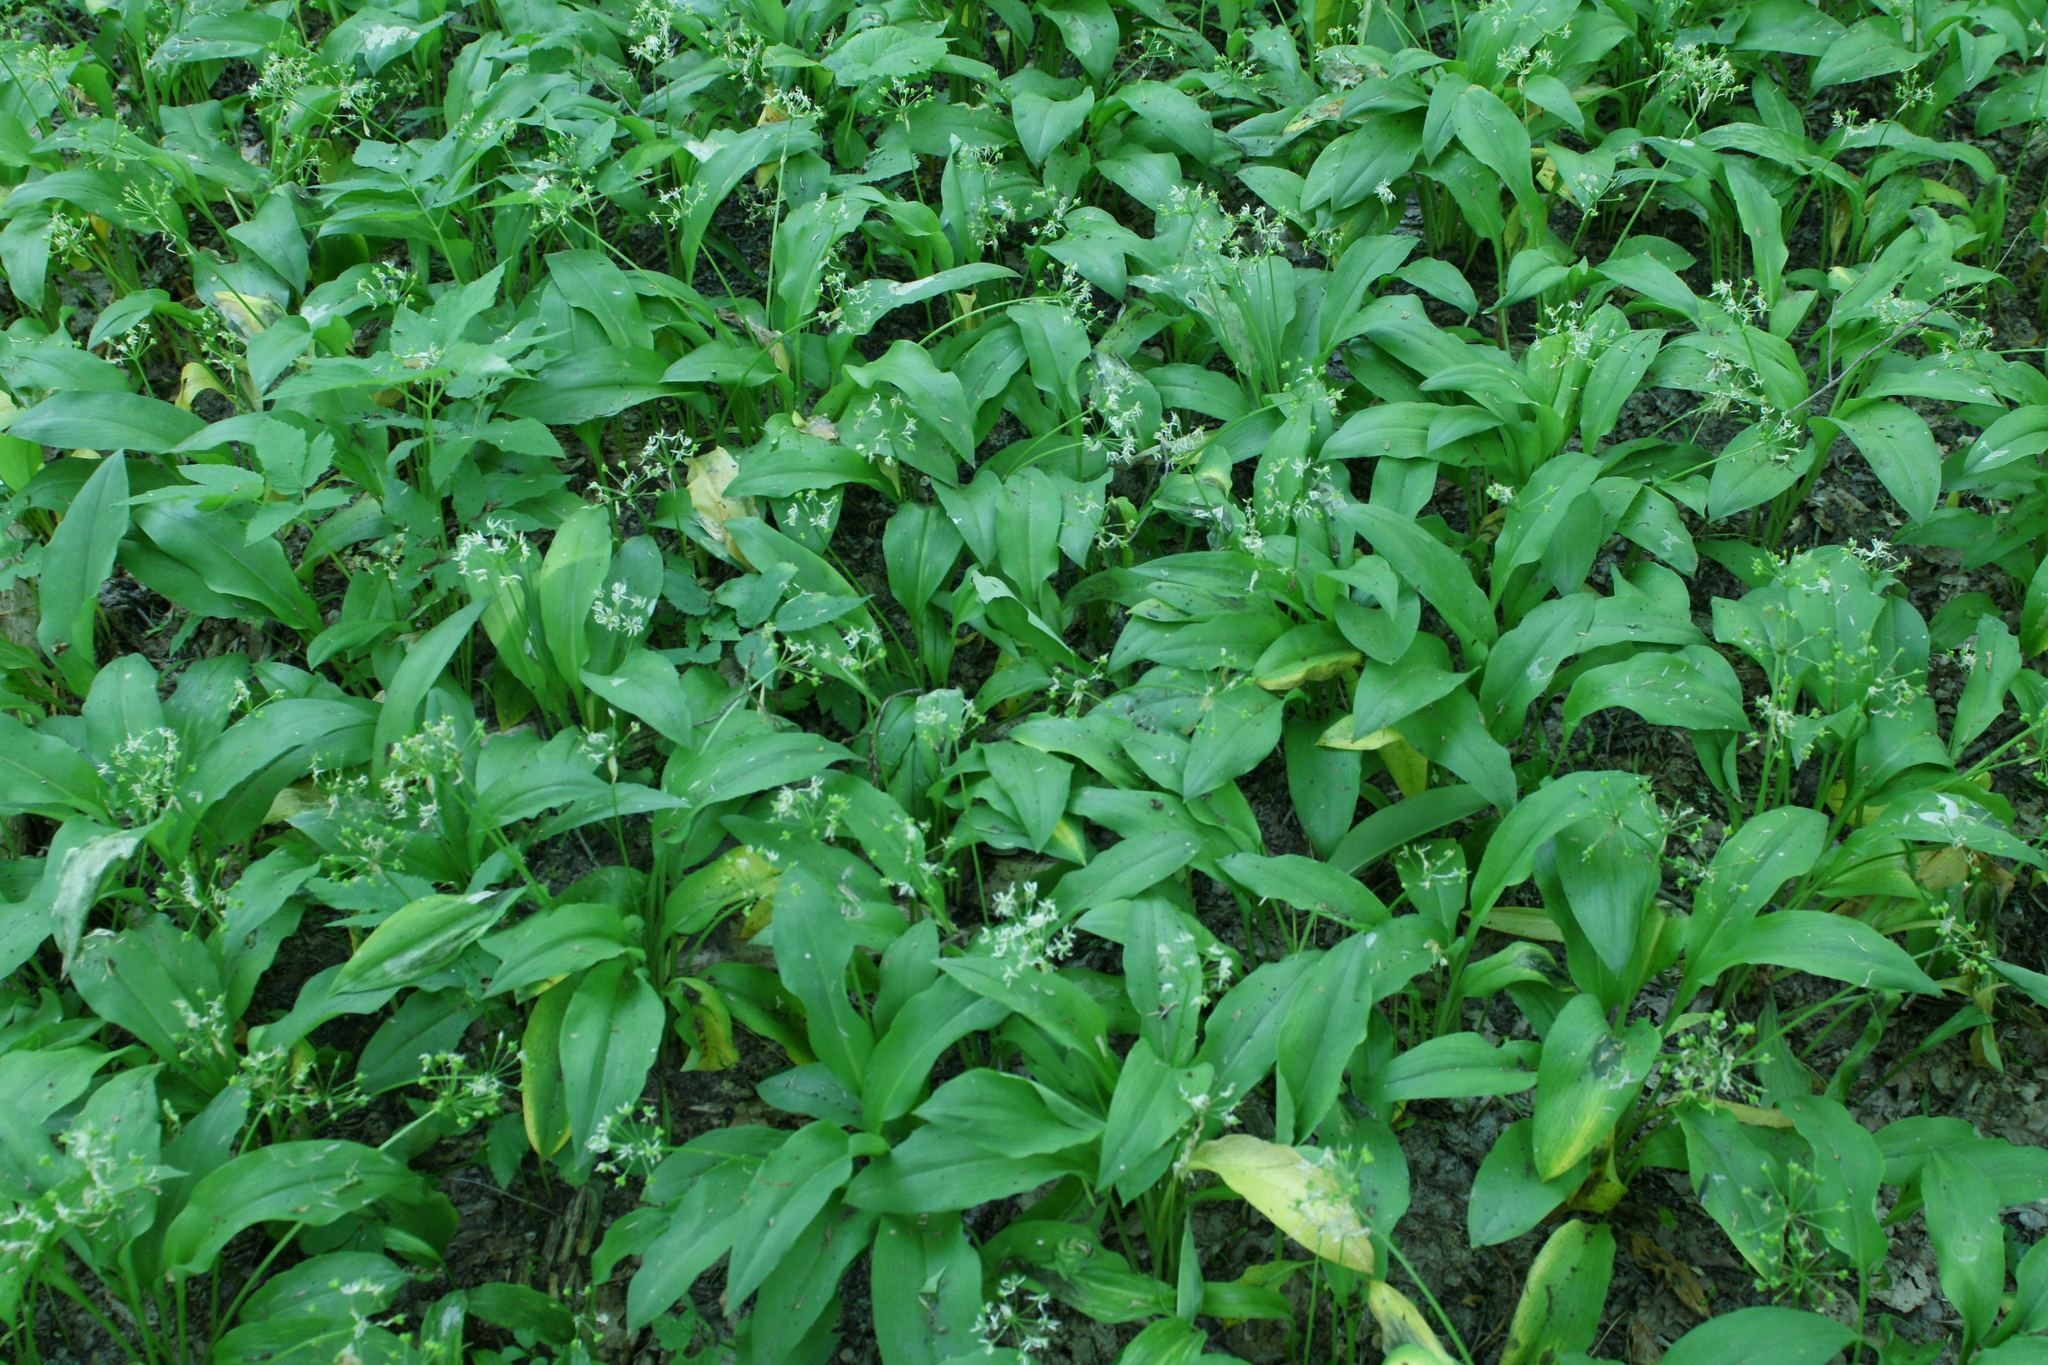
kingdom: Plantae
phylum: Tracheophyta
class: Liliopsida
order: Asparagales
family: Amaryllidaceae
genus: Allium
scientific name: Allium ursinum
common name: Ramsons
